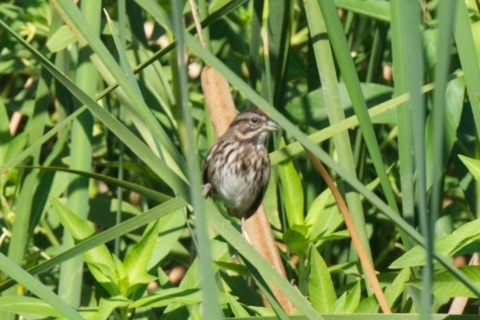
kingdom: Animalia
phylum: Chordata
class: Aves
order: Passeriformes
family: Passerellidae
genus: Melospiza
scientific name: Melospiza melodia
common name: Song sparrow
